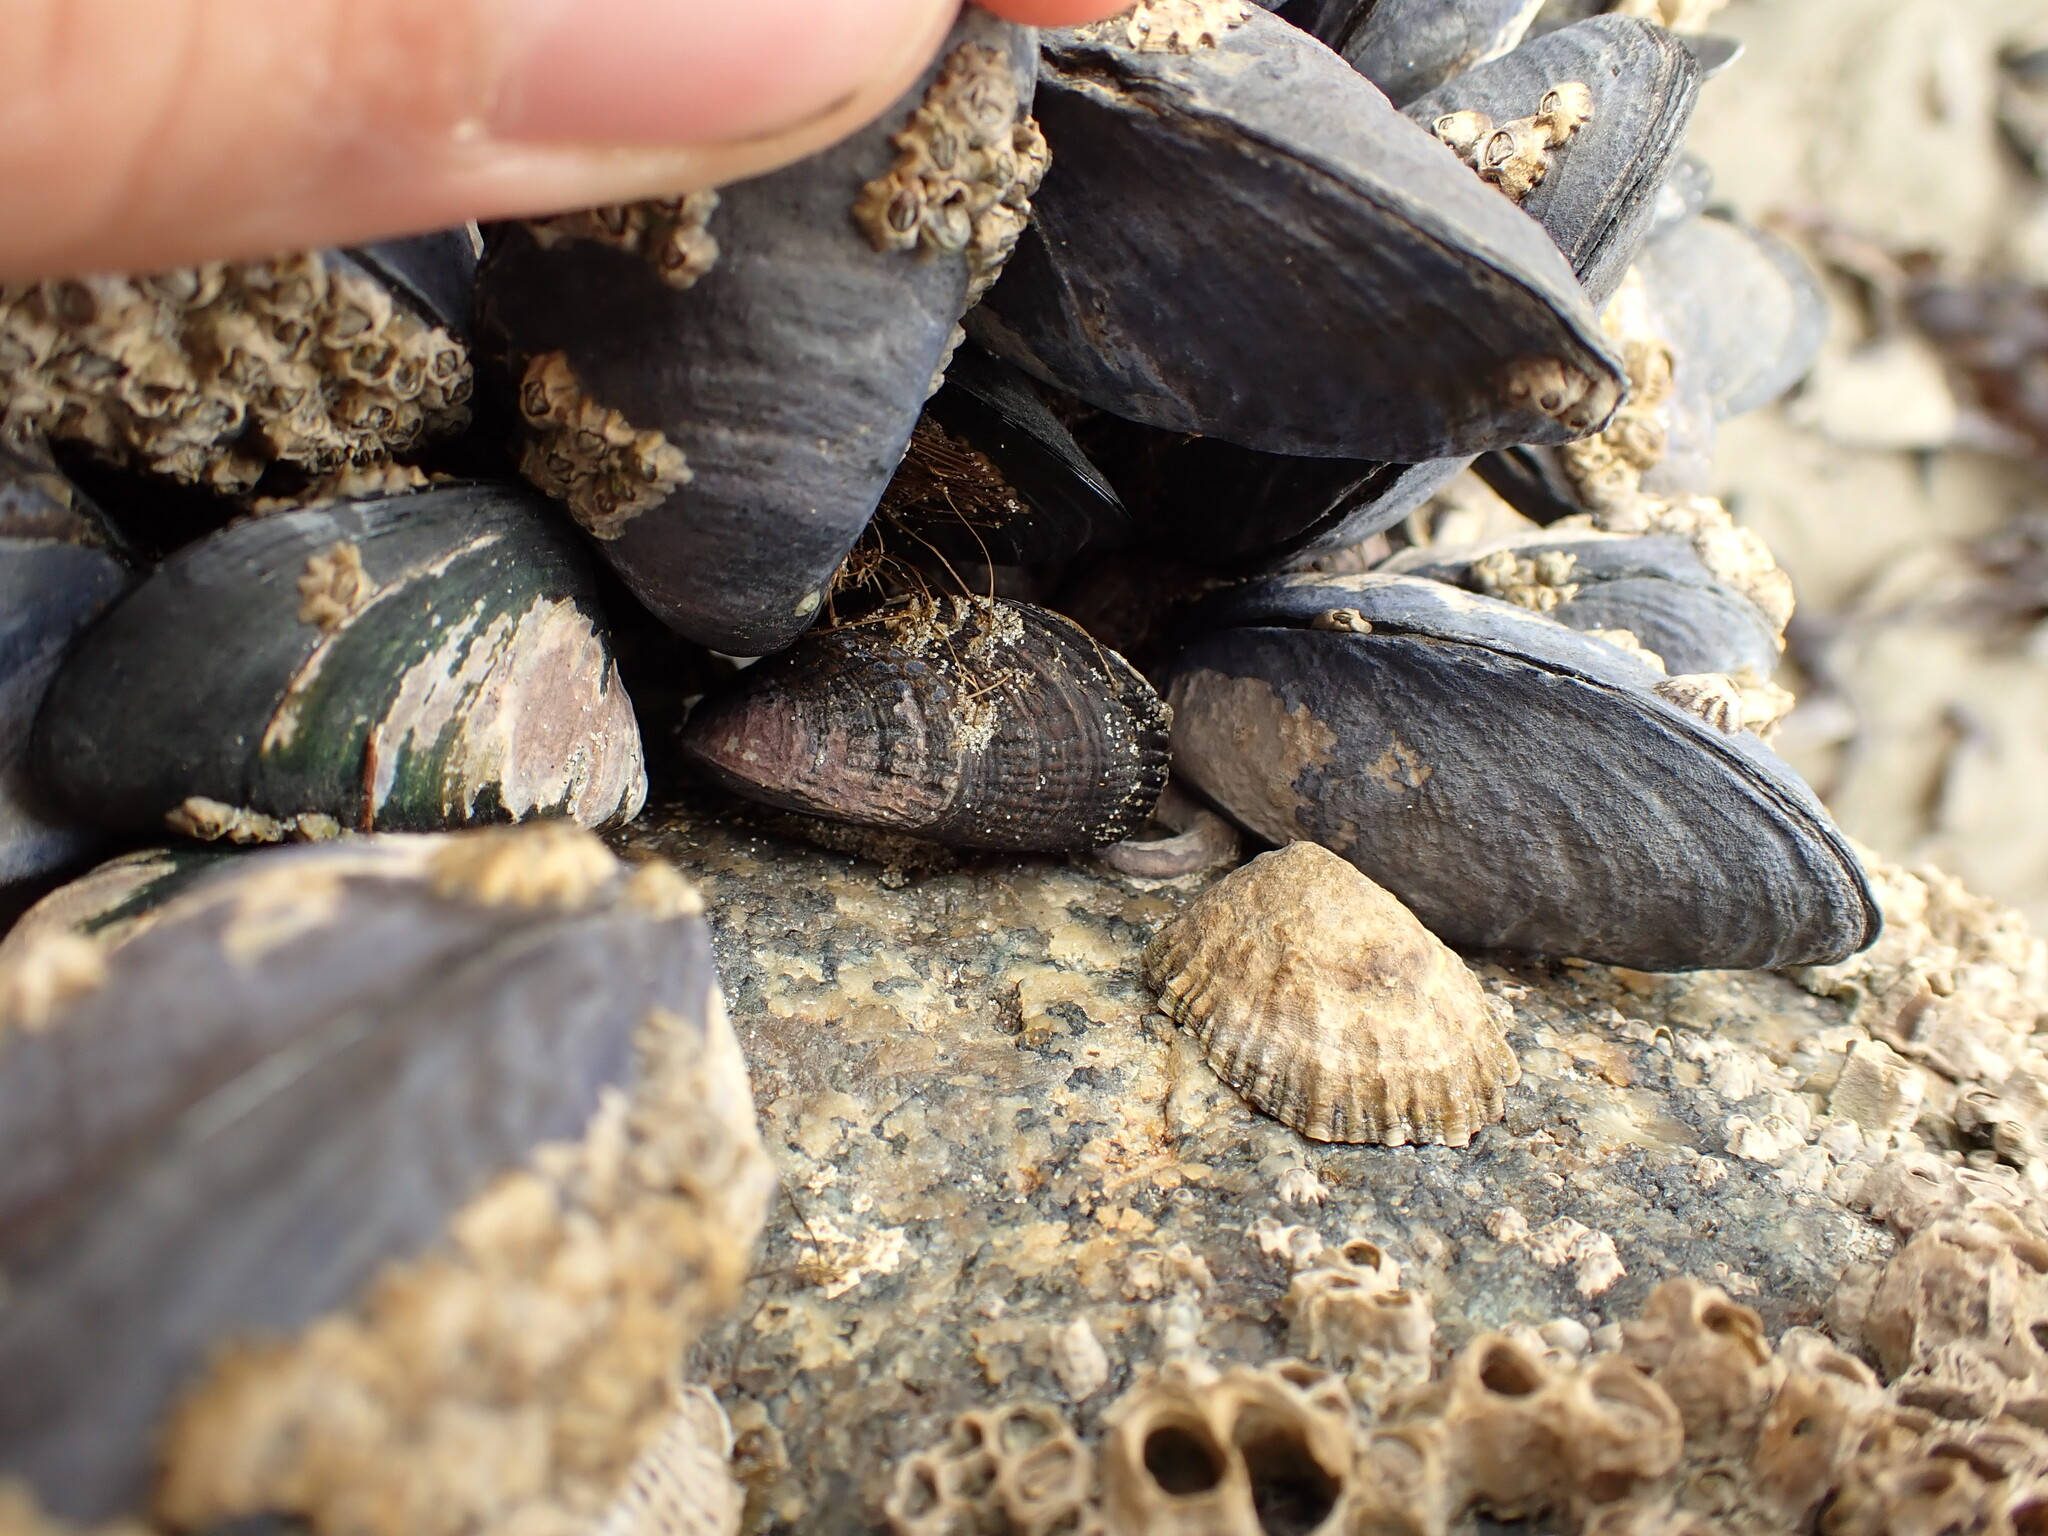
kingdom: Animalia
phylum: Mollusca
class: Bivalvia
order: Mytilida
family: Mytilidae
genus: Aulacomya
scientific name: Aulacomya maoriana
